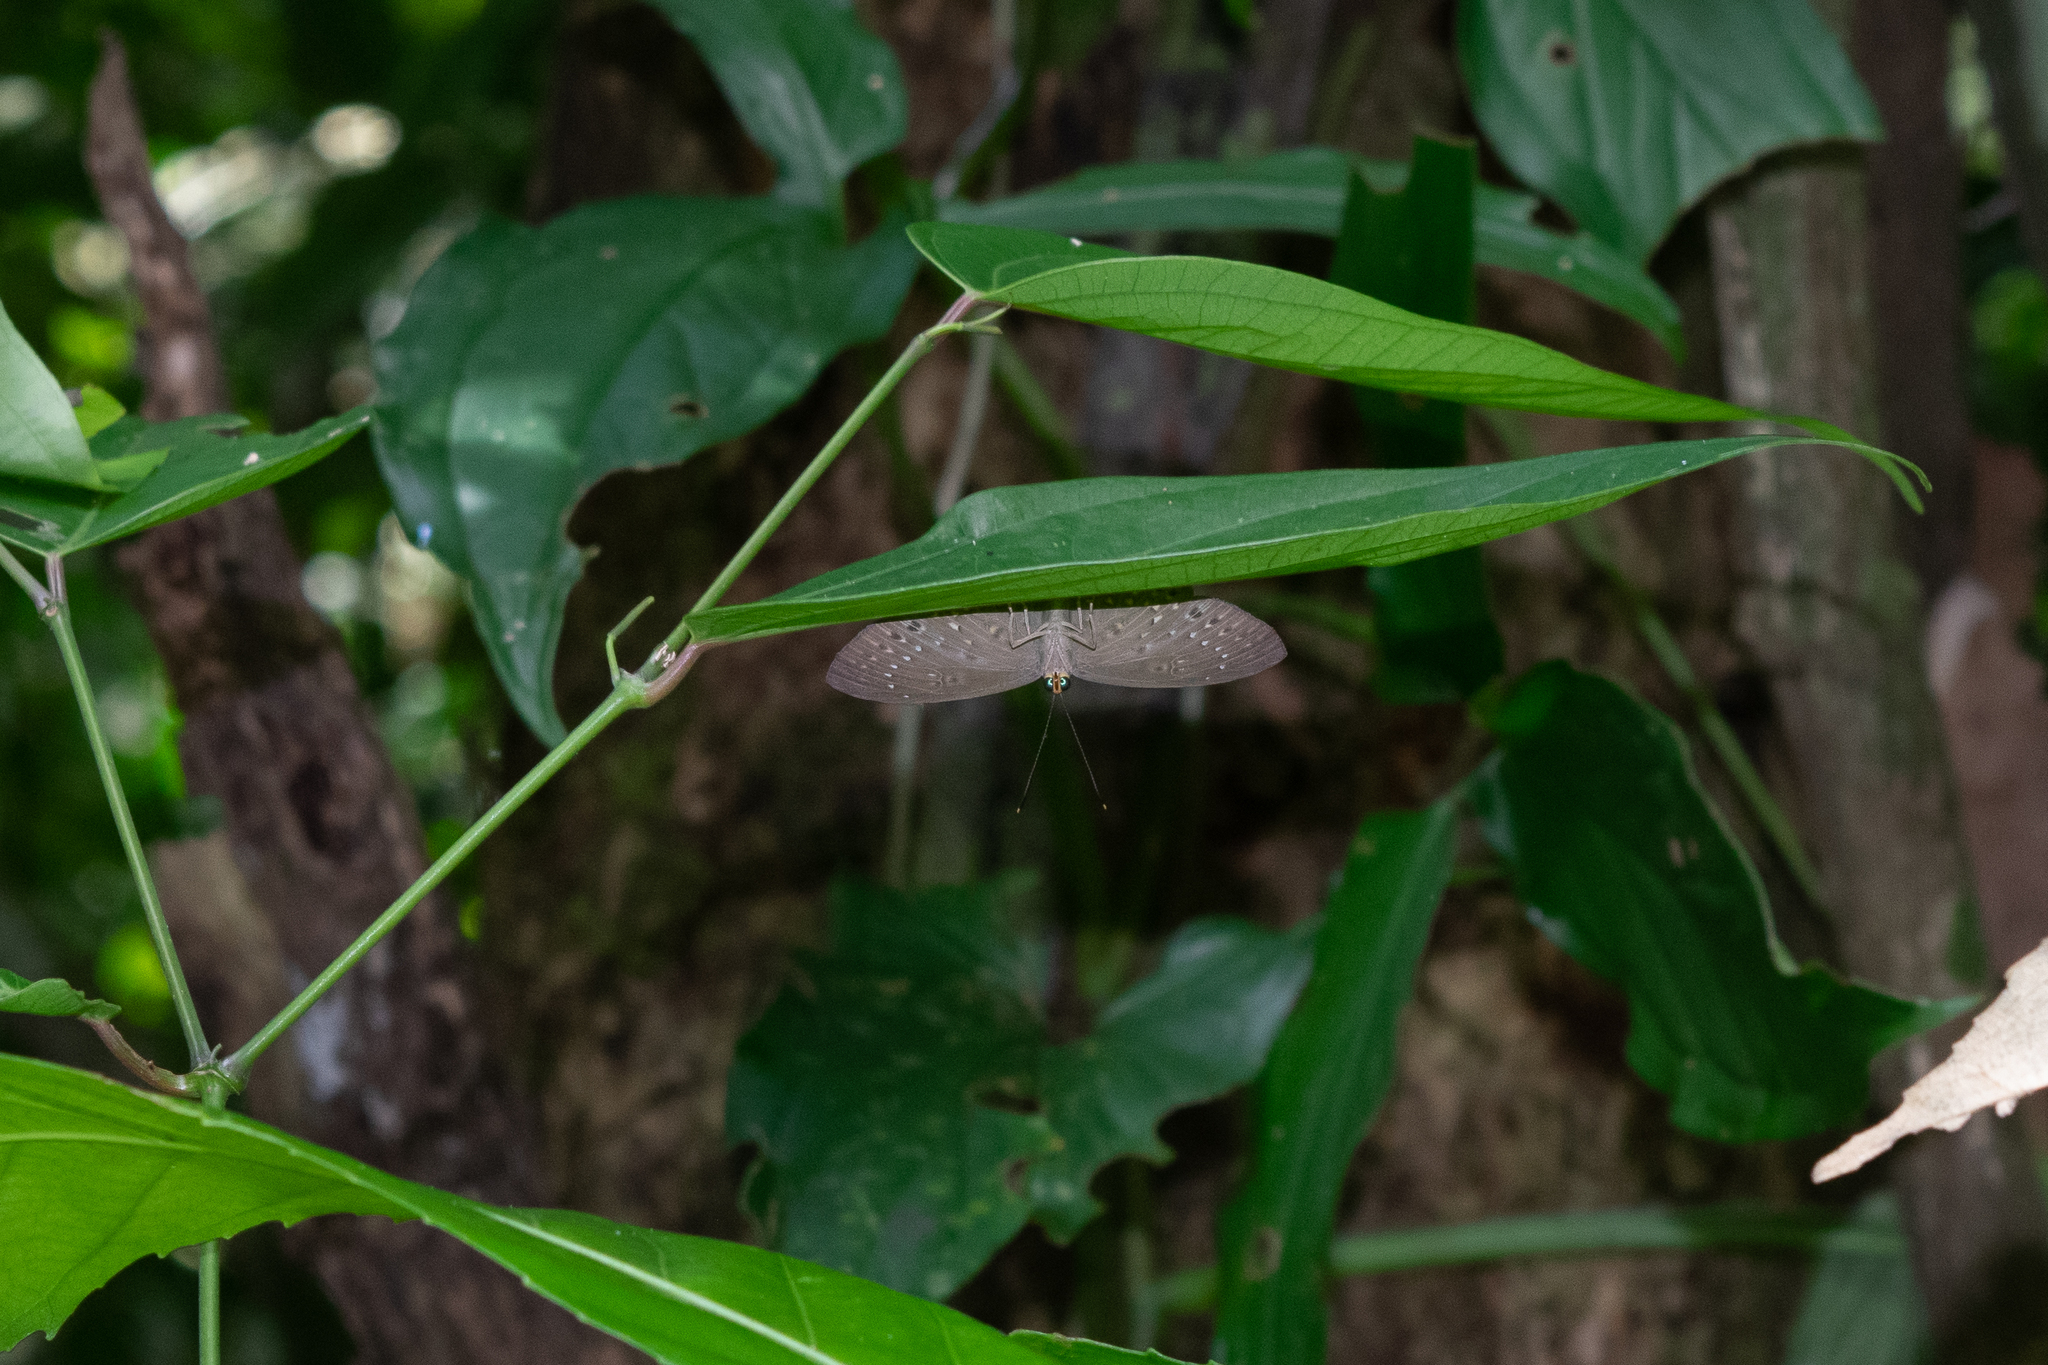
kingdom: Animalia
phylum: Cnidaria
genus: Eurybia
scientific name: Eurybia elvina
